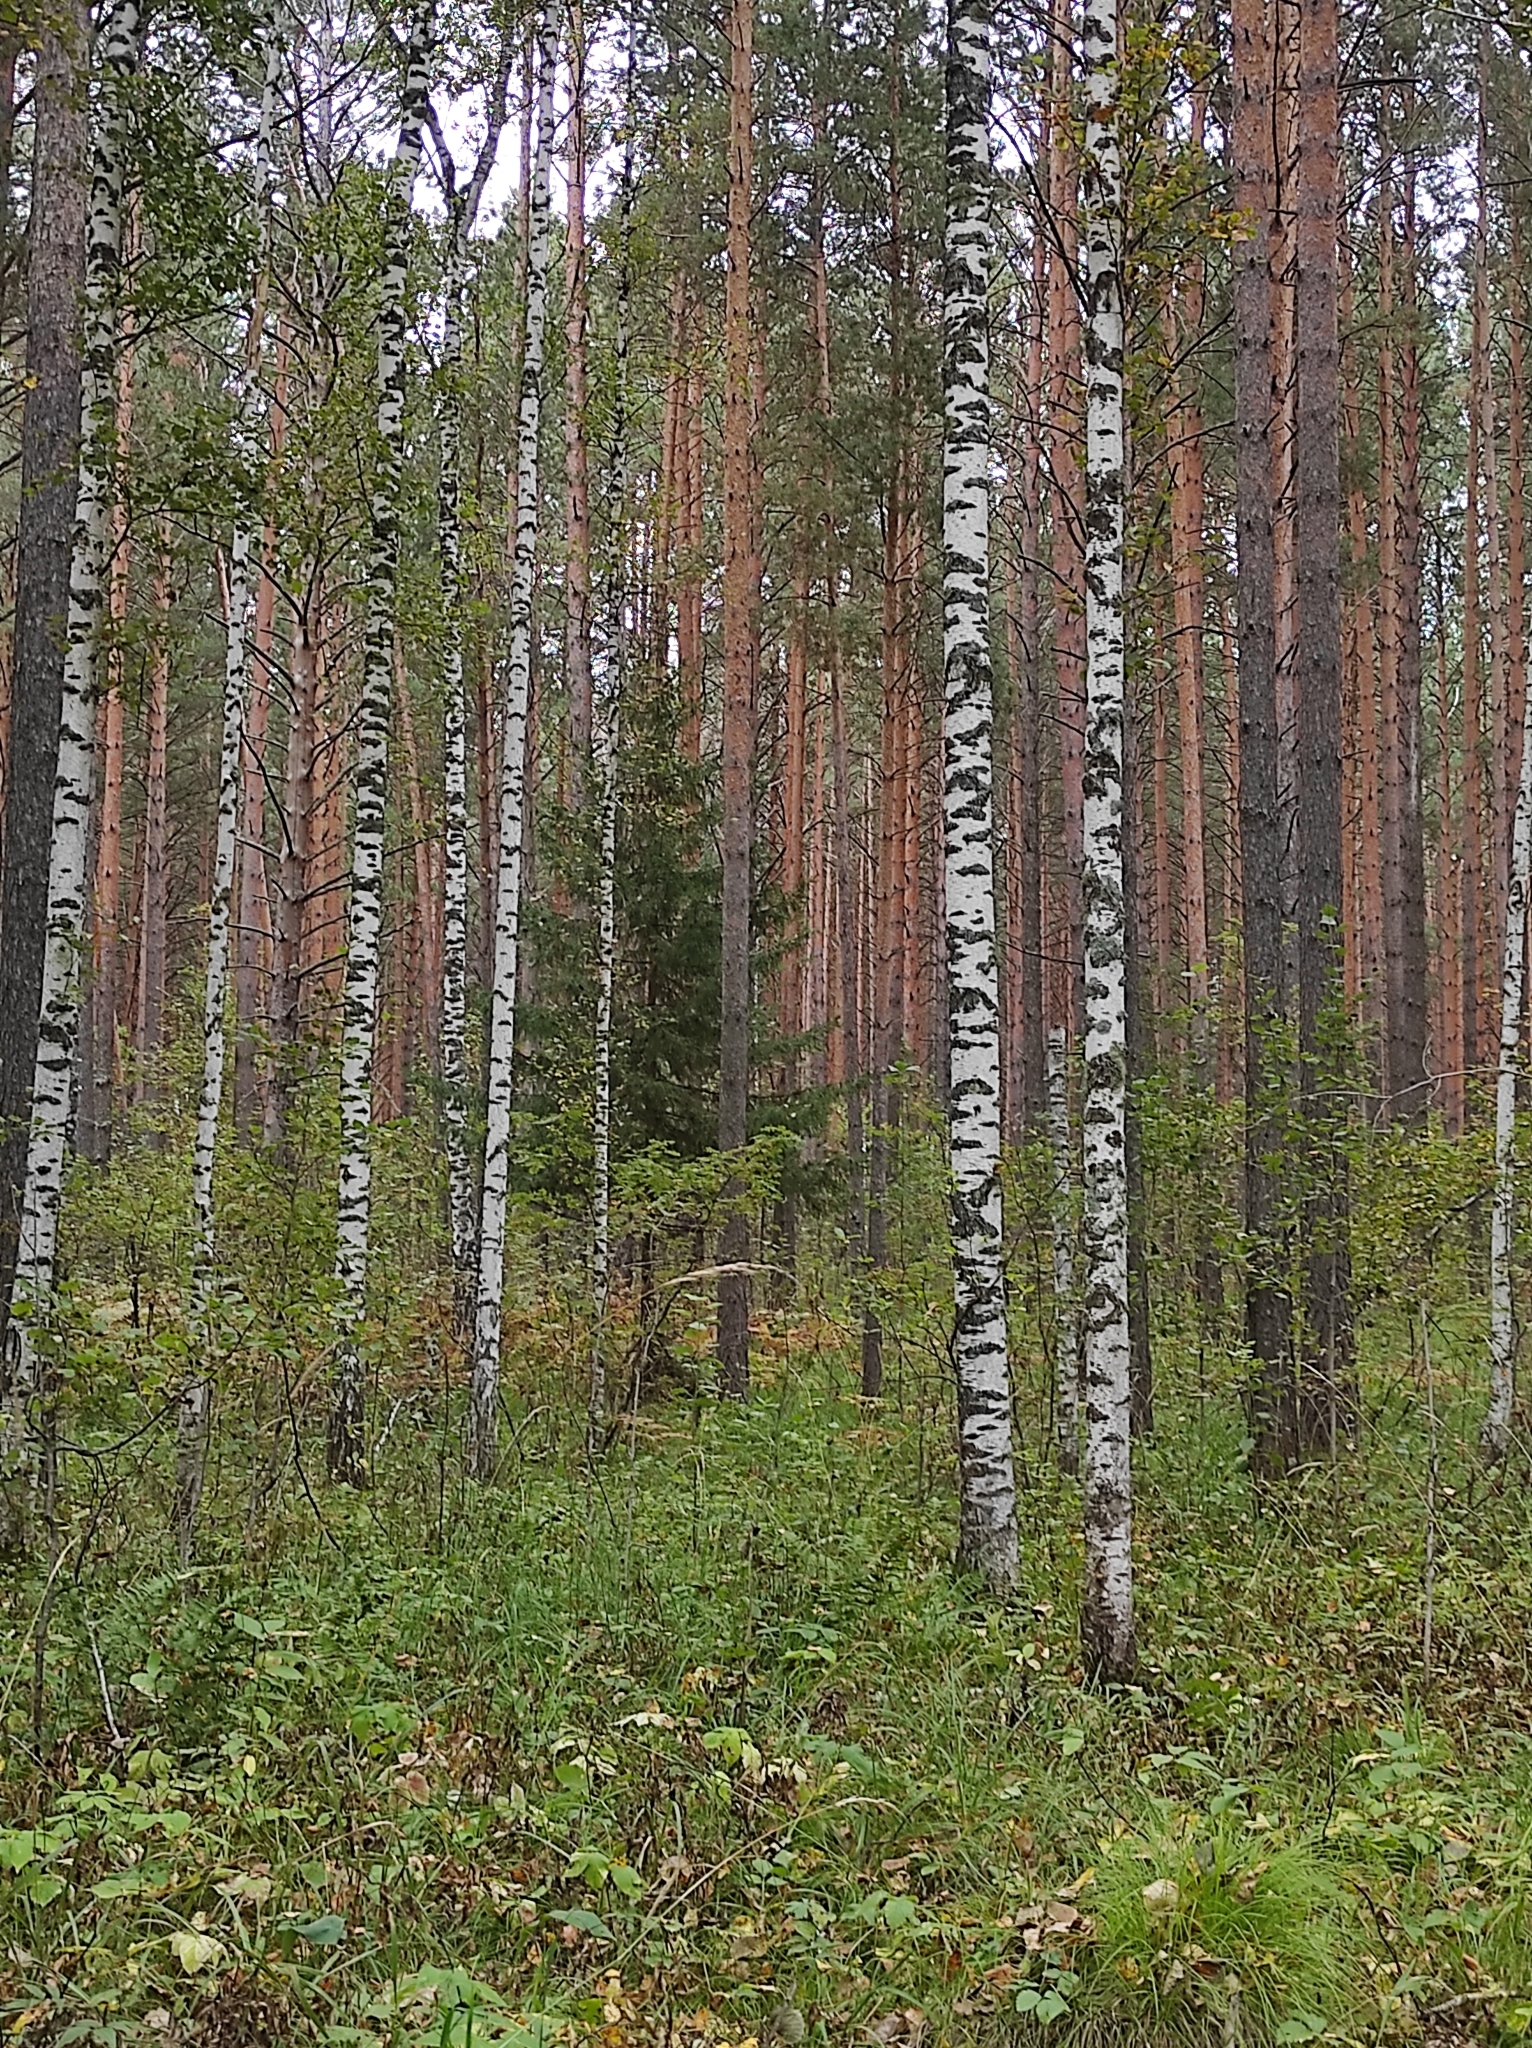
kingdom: Plantae
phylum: Tracheophyta
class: Pinopsida
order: Pinales
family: Pinaceae
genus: Picea
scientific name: Picea obovata
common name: Siberian spruce
